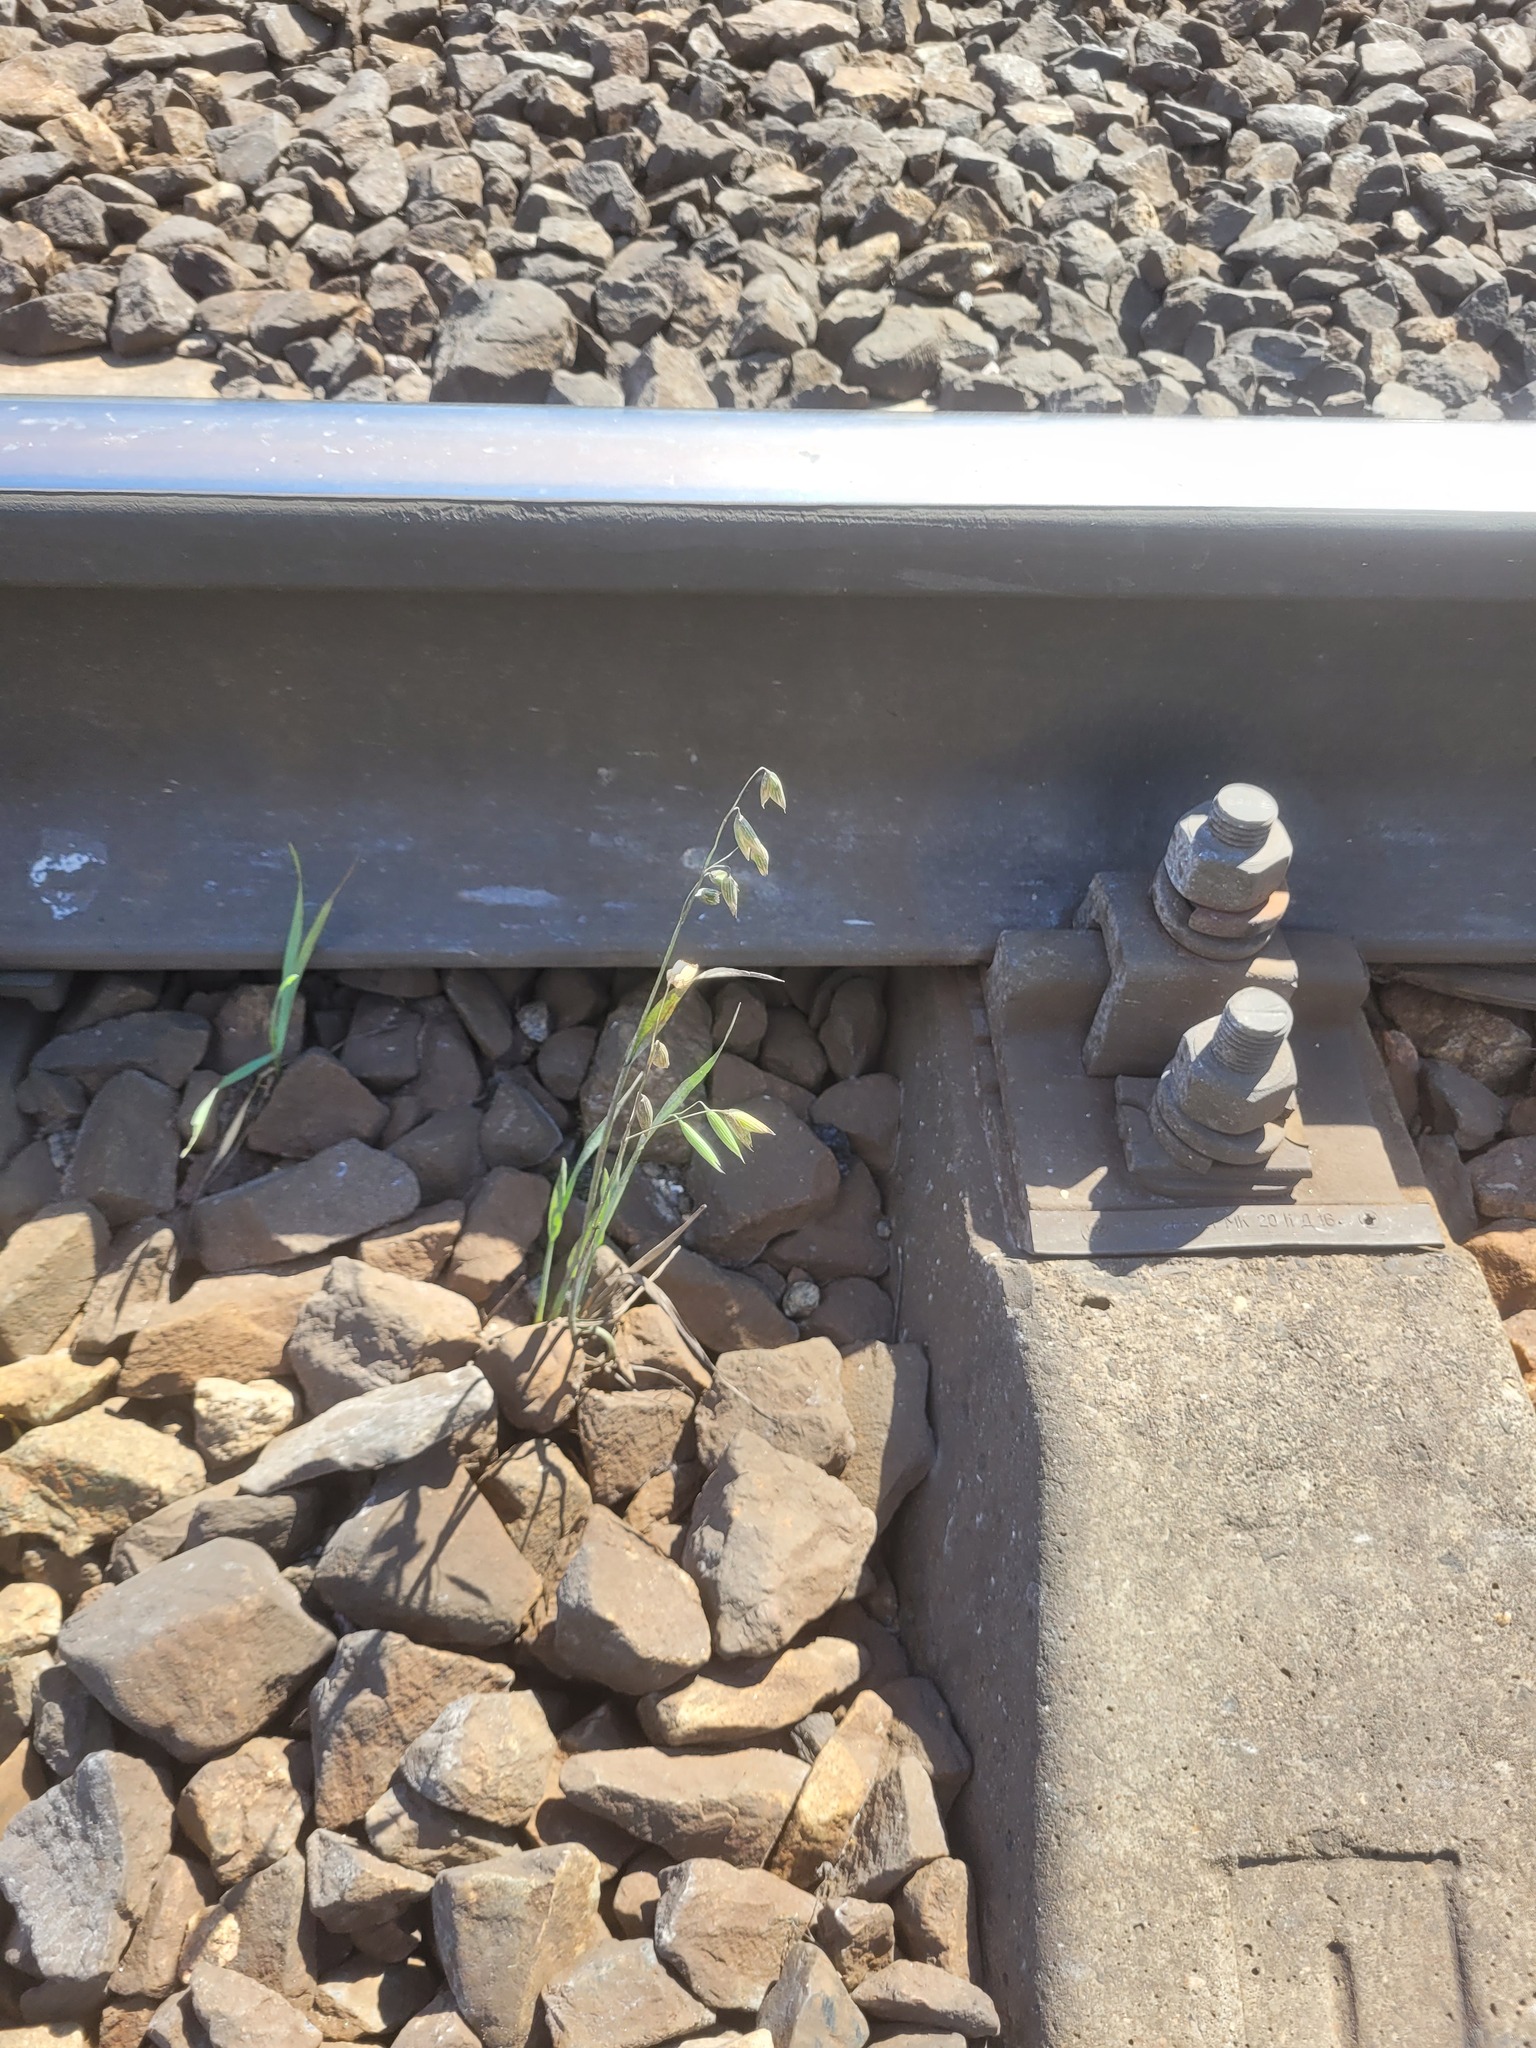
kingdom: Plantae
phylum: Tracheophyta
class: Liliopsida
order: Poales
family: Poaceae
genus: Avena
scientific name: Avena sativa
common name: Oat
